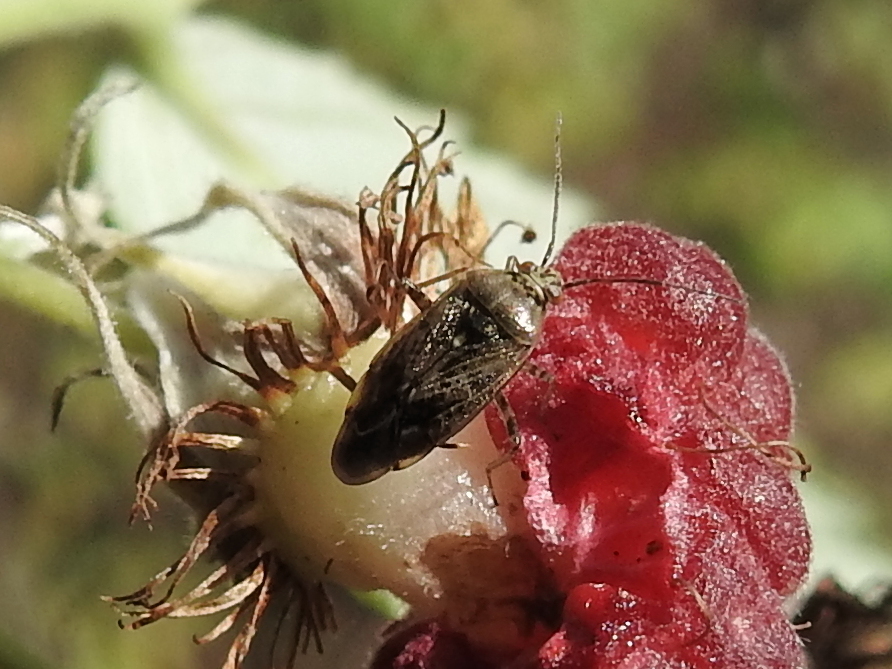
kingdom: Animalia
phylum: Arthropoda
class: Insecta
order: Hemiptera
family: Miridae
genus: Lygus
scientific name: Lygus rugulipennis
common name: European tarnished plant bug
